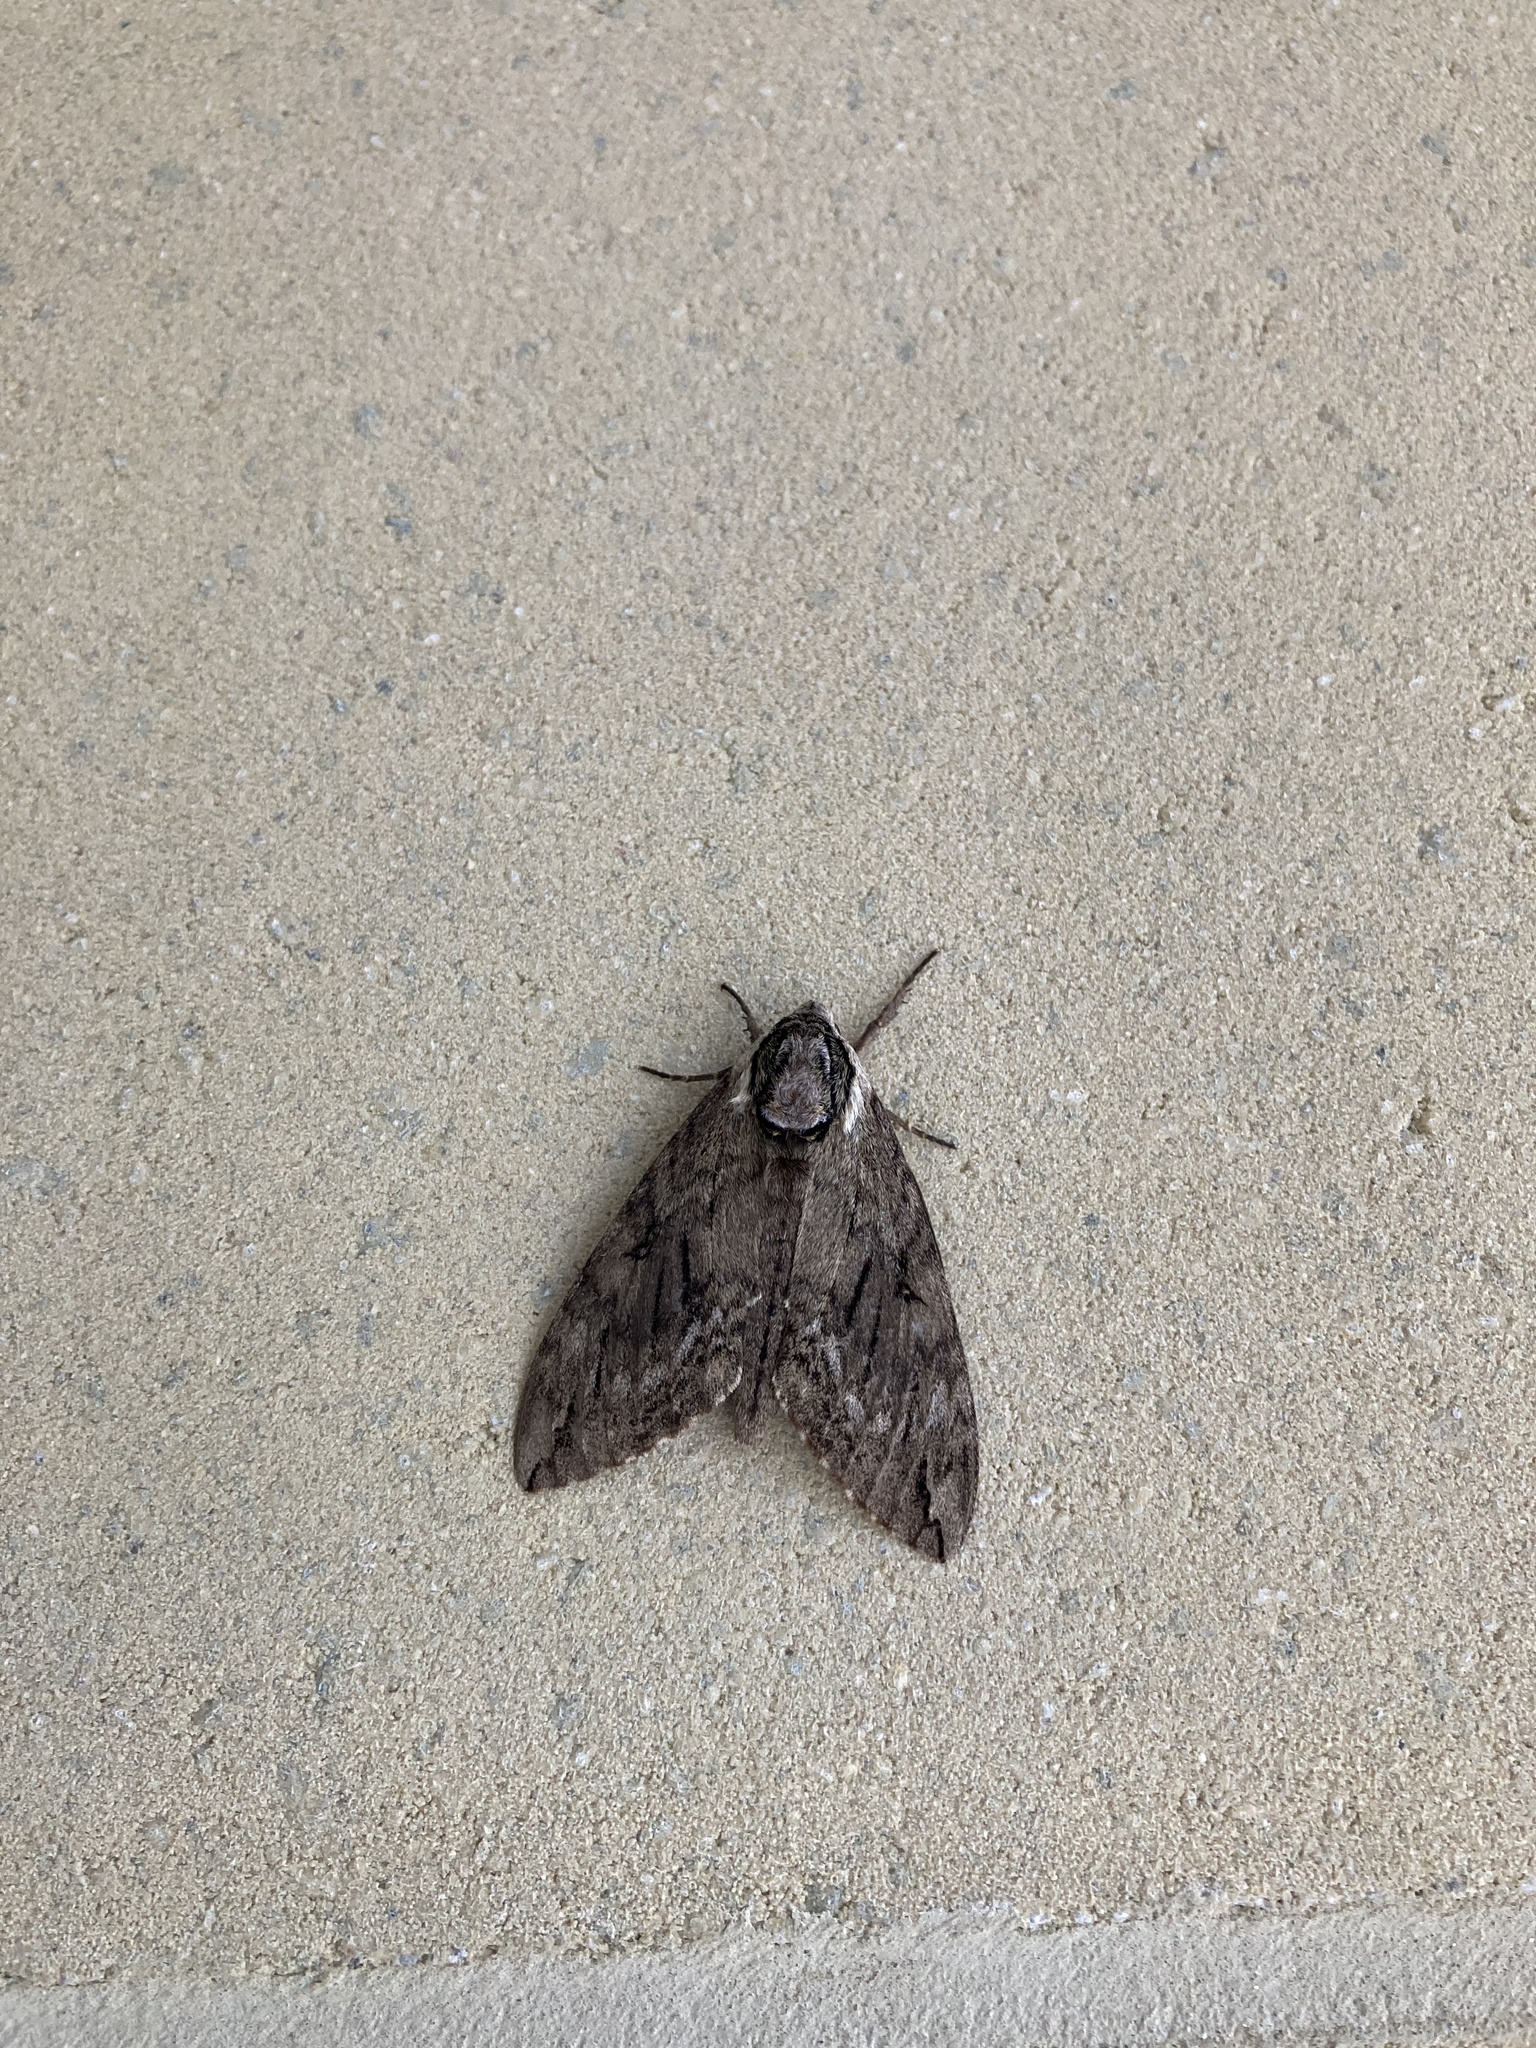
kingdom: Animalia
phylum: Arthropoda
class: Insecta
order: Lepidoptera
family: Sphingidae
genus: Ceratomia
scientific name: Ceratomia catalpae
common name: Catalpa hornworm
